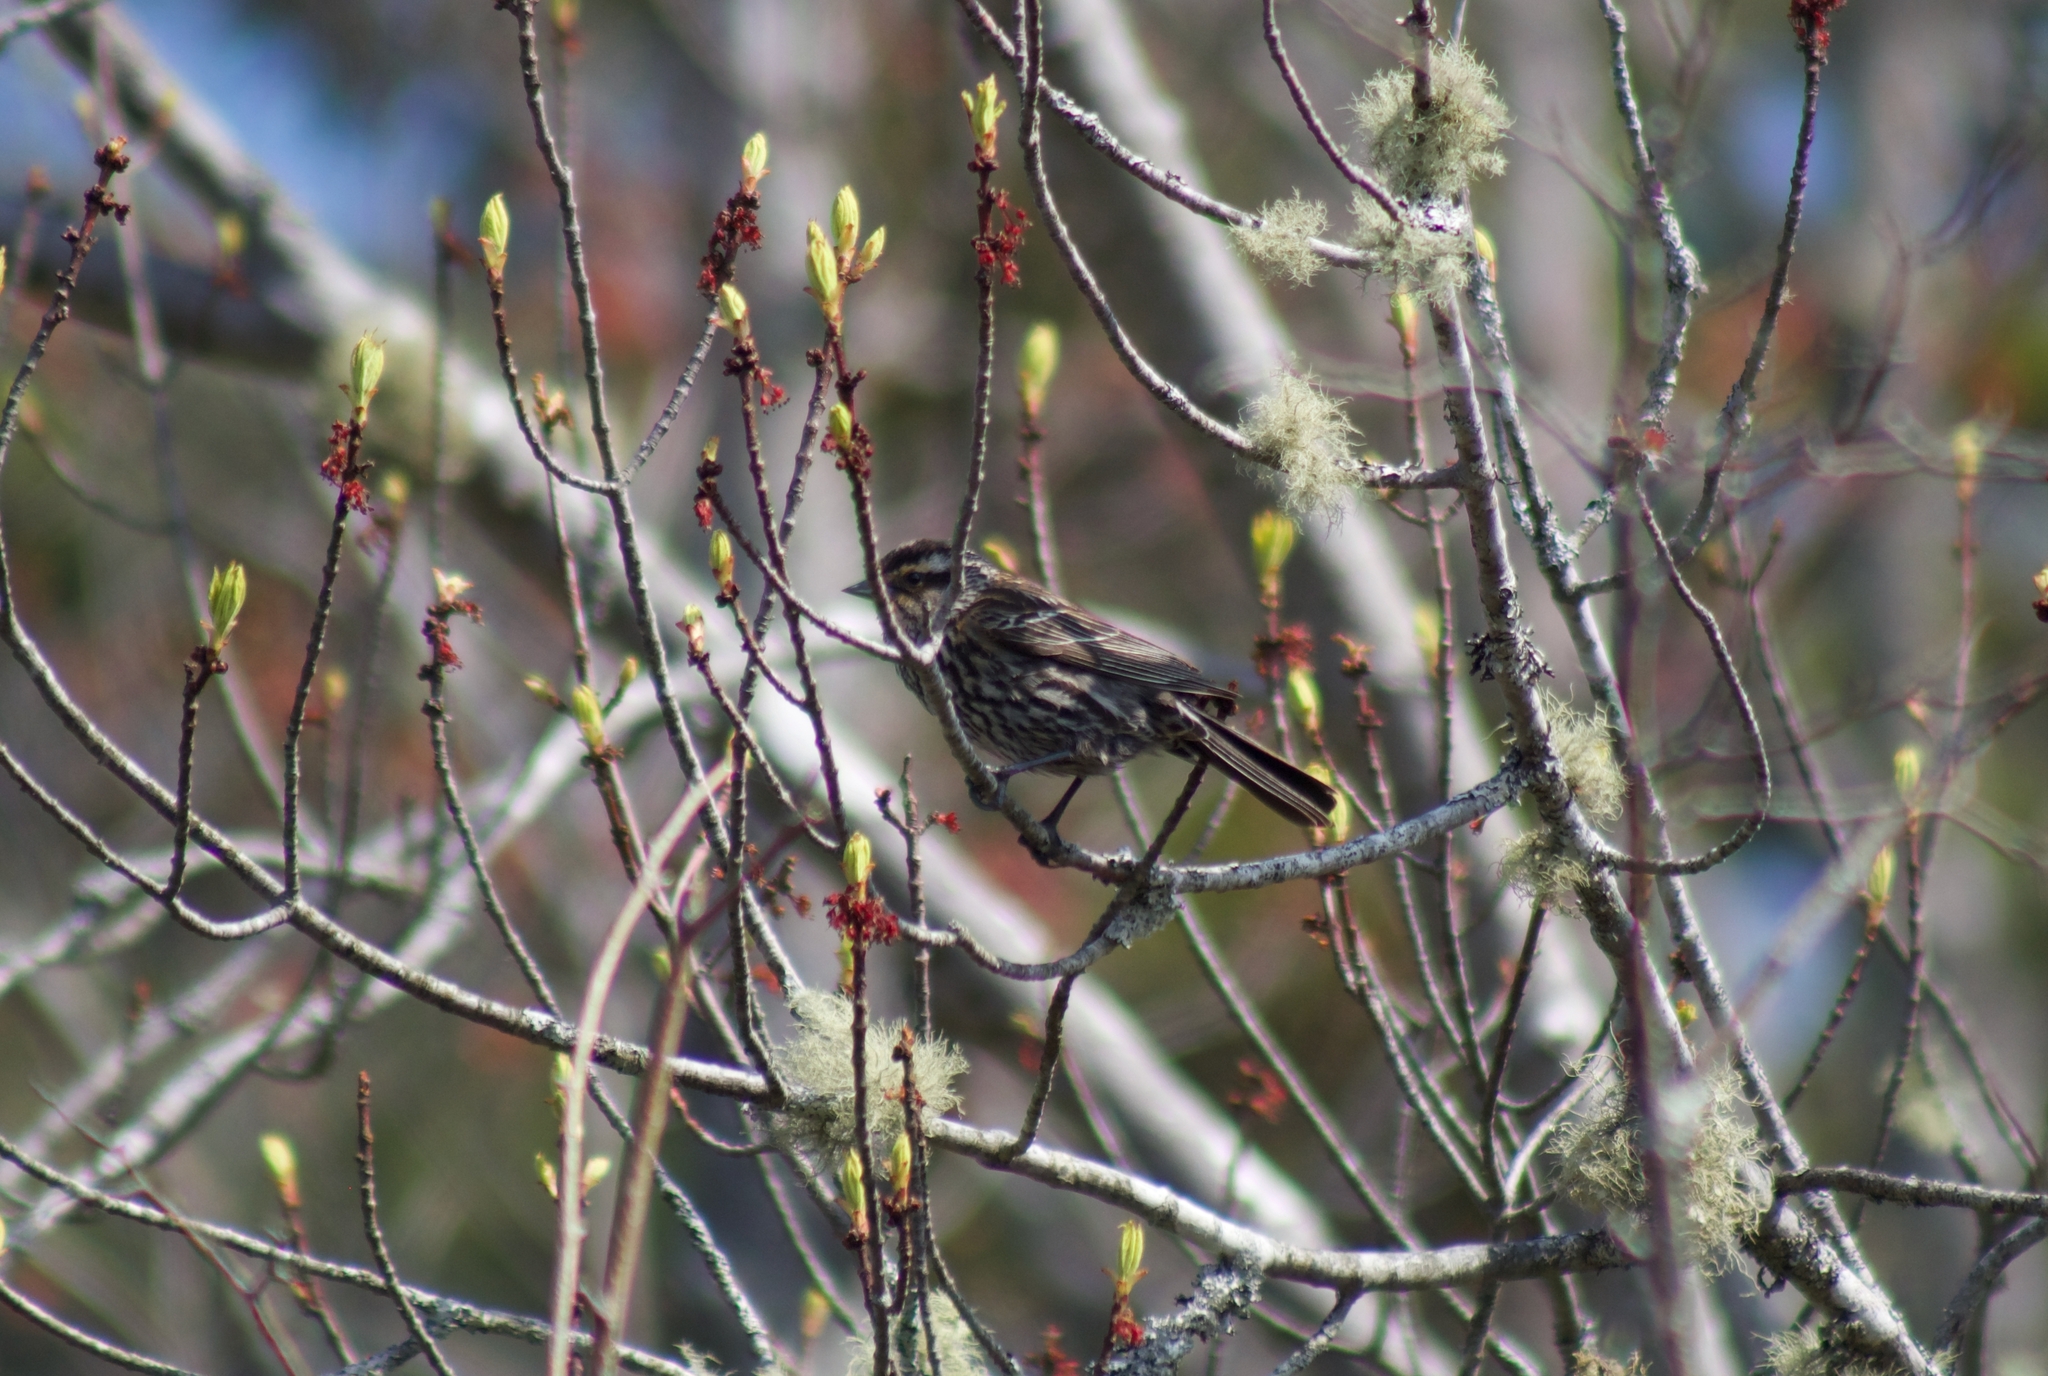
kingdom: Animalia
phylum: Chordata
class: Aves
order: Passeriformes
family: Icteridae
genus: Agelaius
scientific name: Agelaius phoeniceus
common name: Red-winged blackbird
